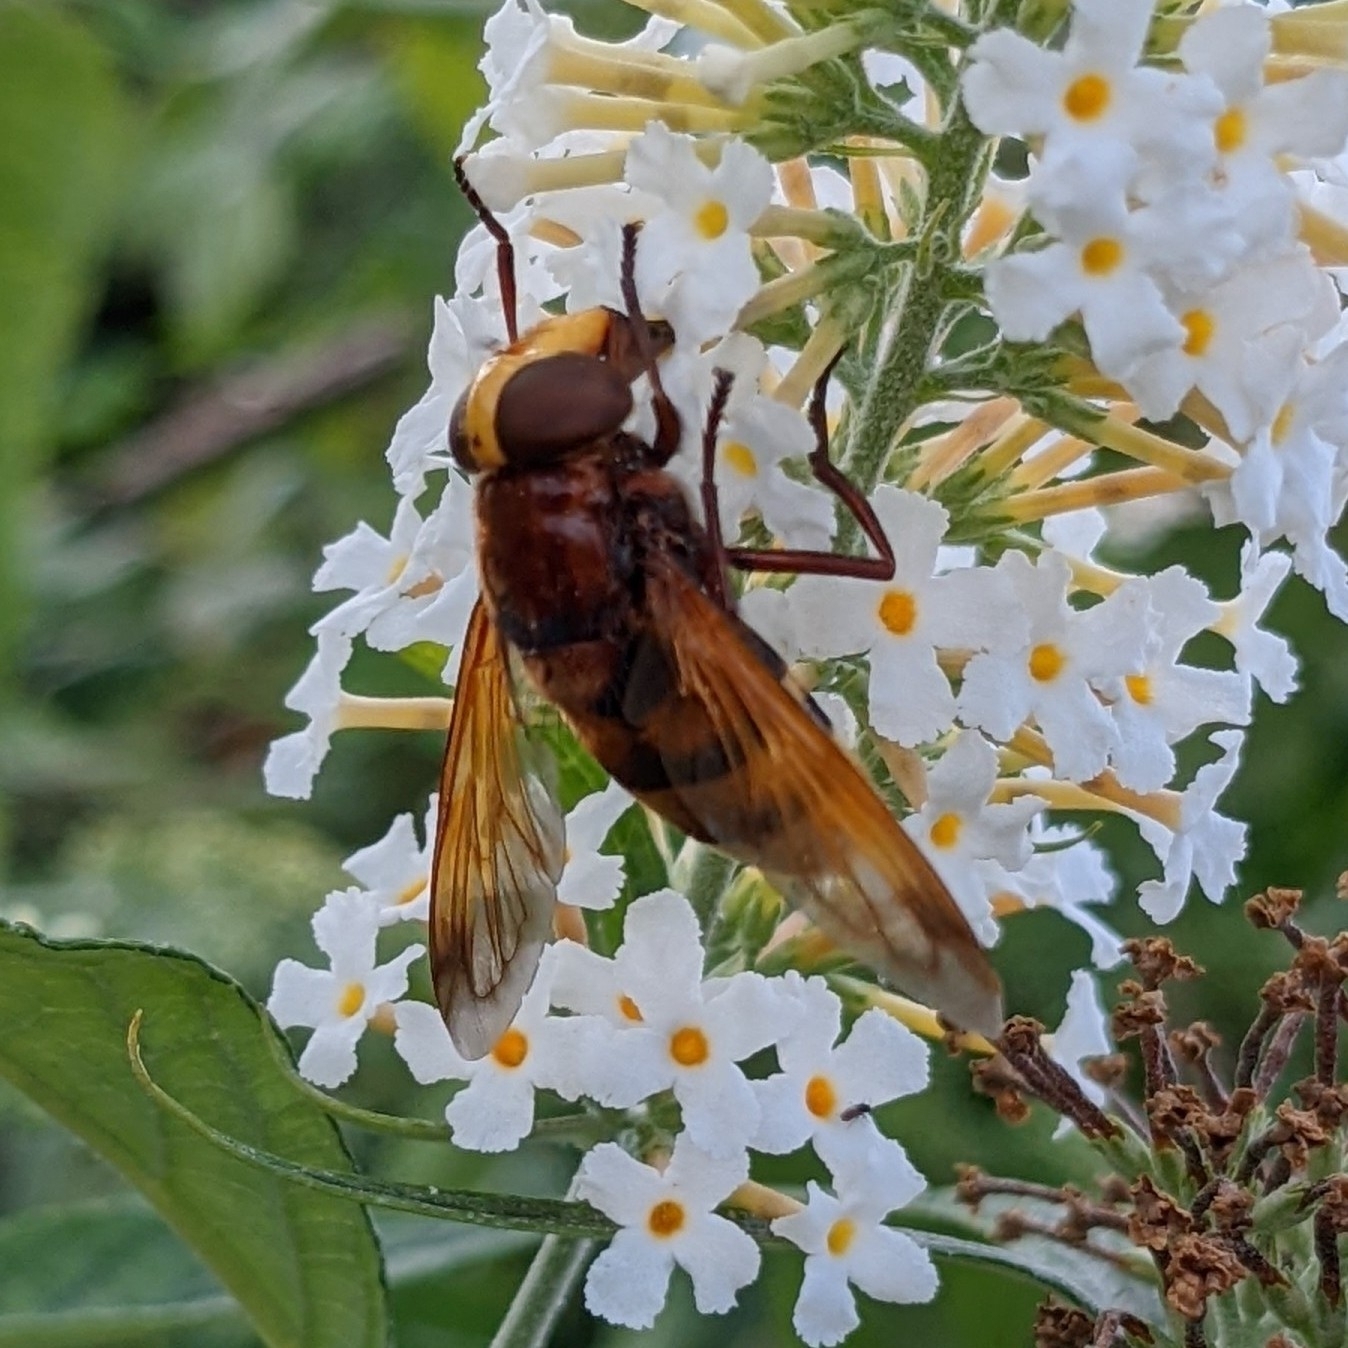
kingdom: Animalia
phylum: Arthropoda
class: Insecta
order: Diptera
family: Syrphidae
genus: Volucella
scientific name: Volucella zonaria
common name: Hornet hoverfly
